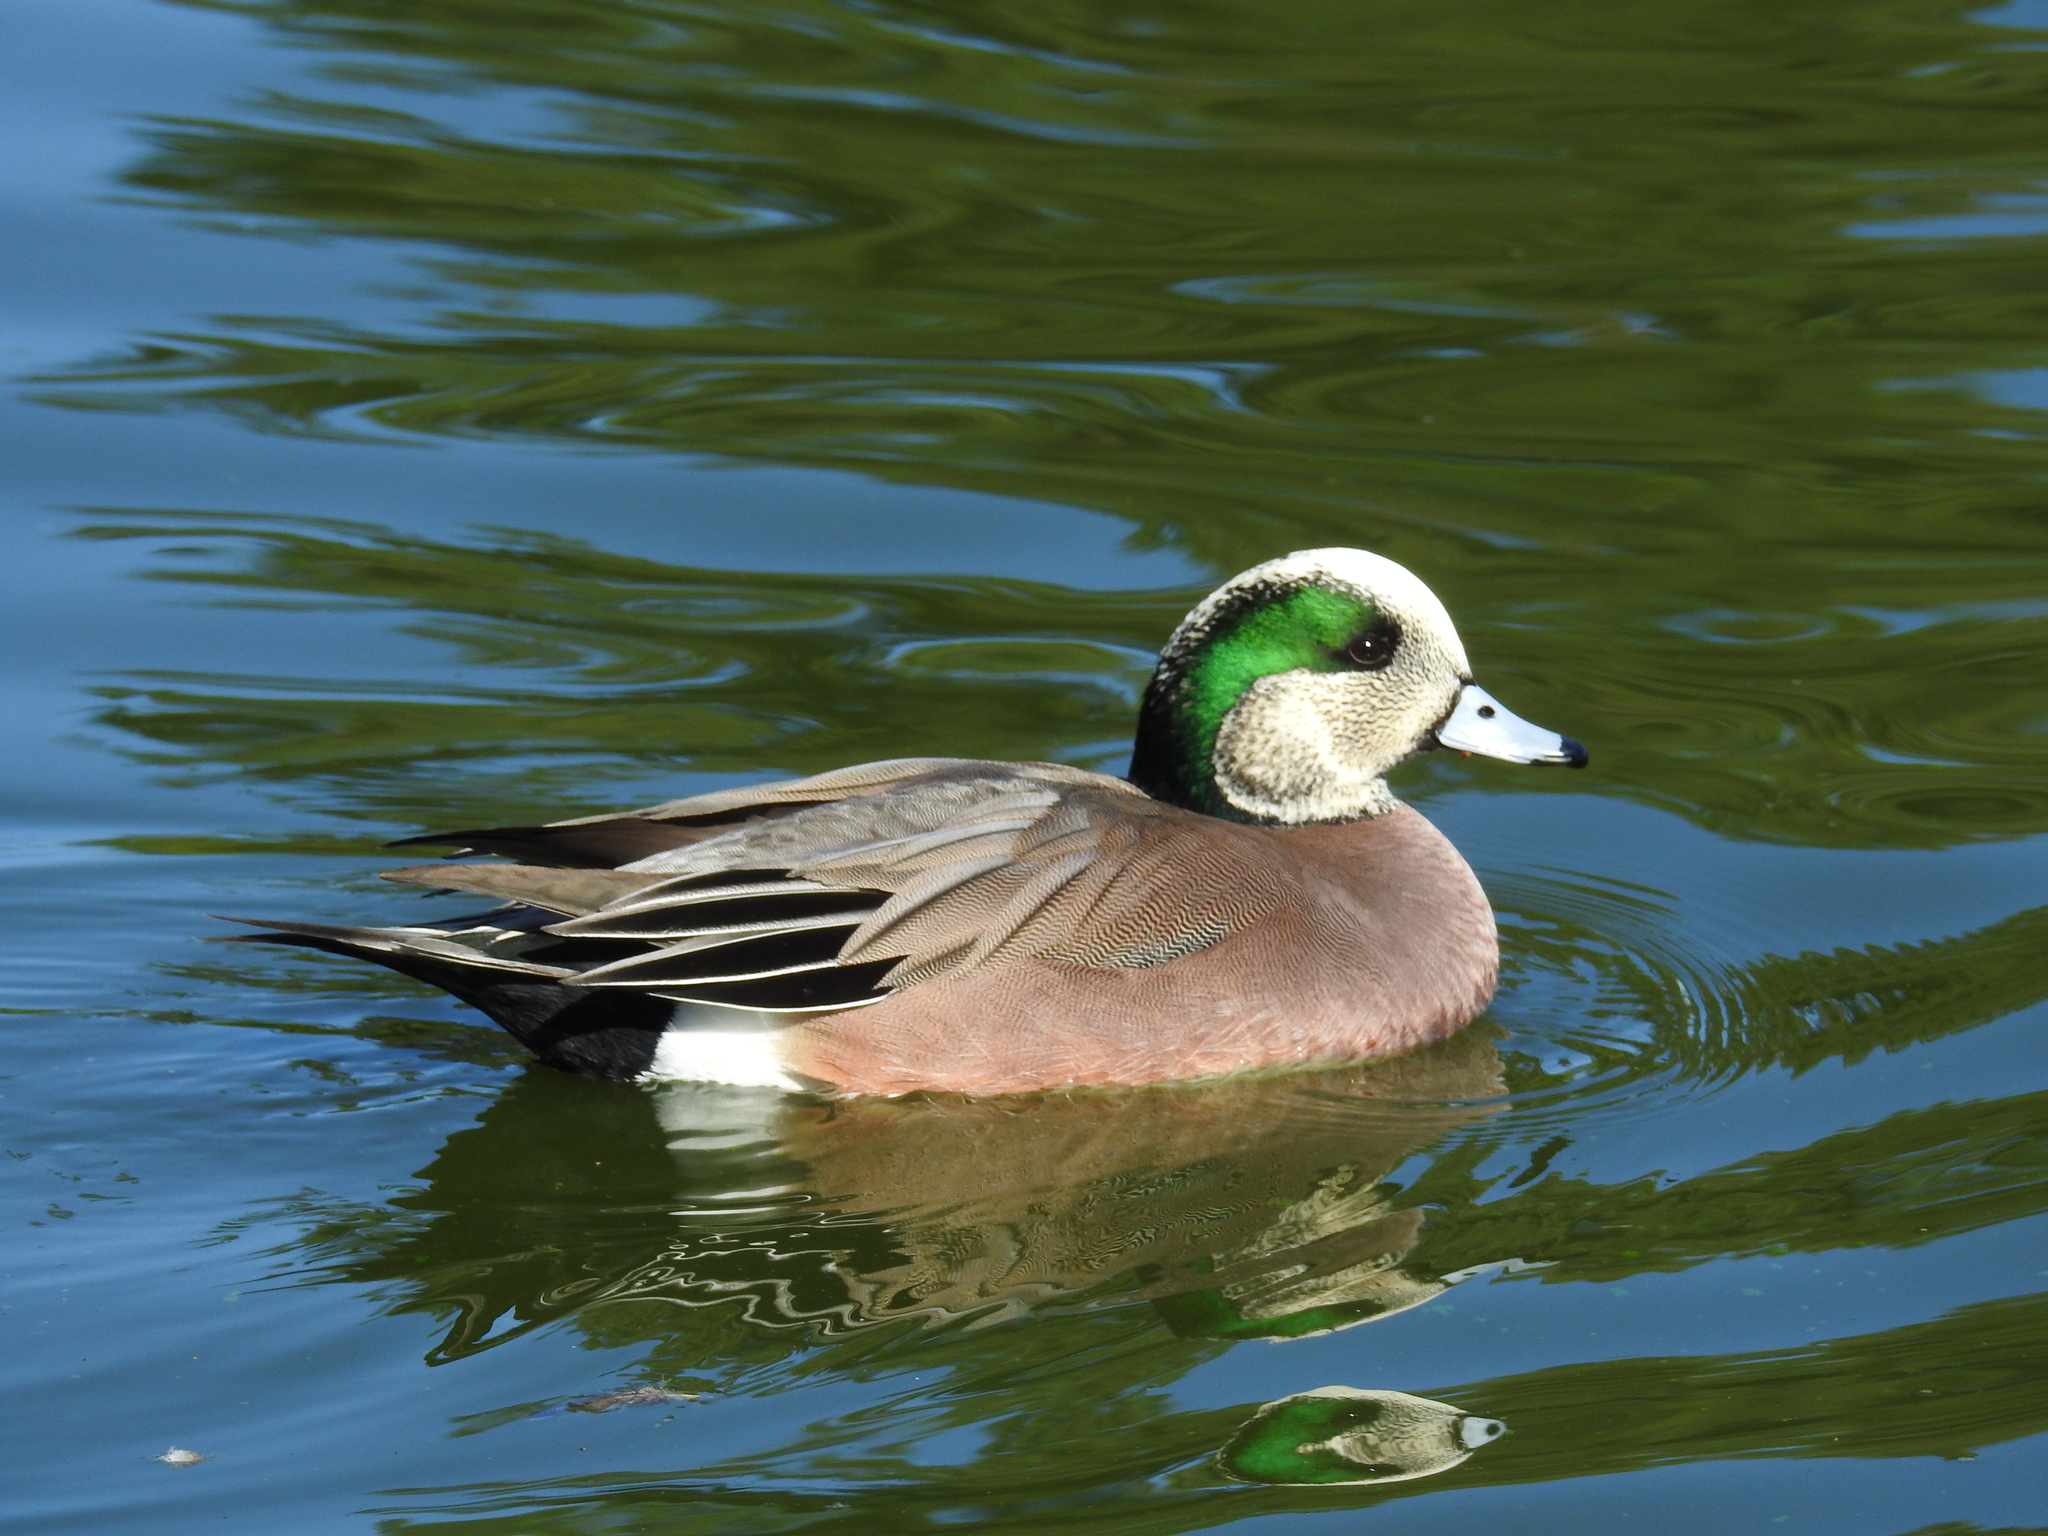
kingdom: Animalia
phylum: Chordata
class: Aves
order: Anseriformes
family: Anatidae
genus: Mareca
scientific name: Mareca americana
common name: American wigeon
